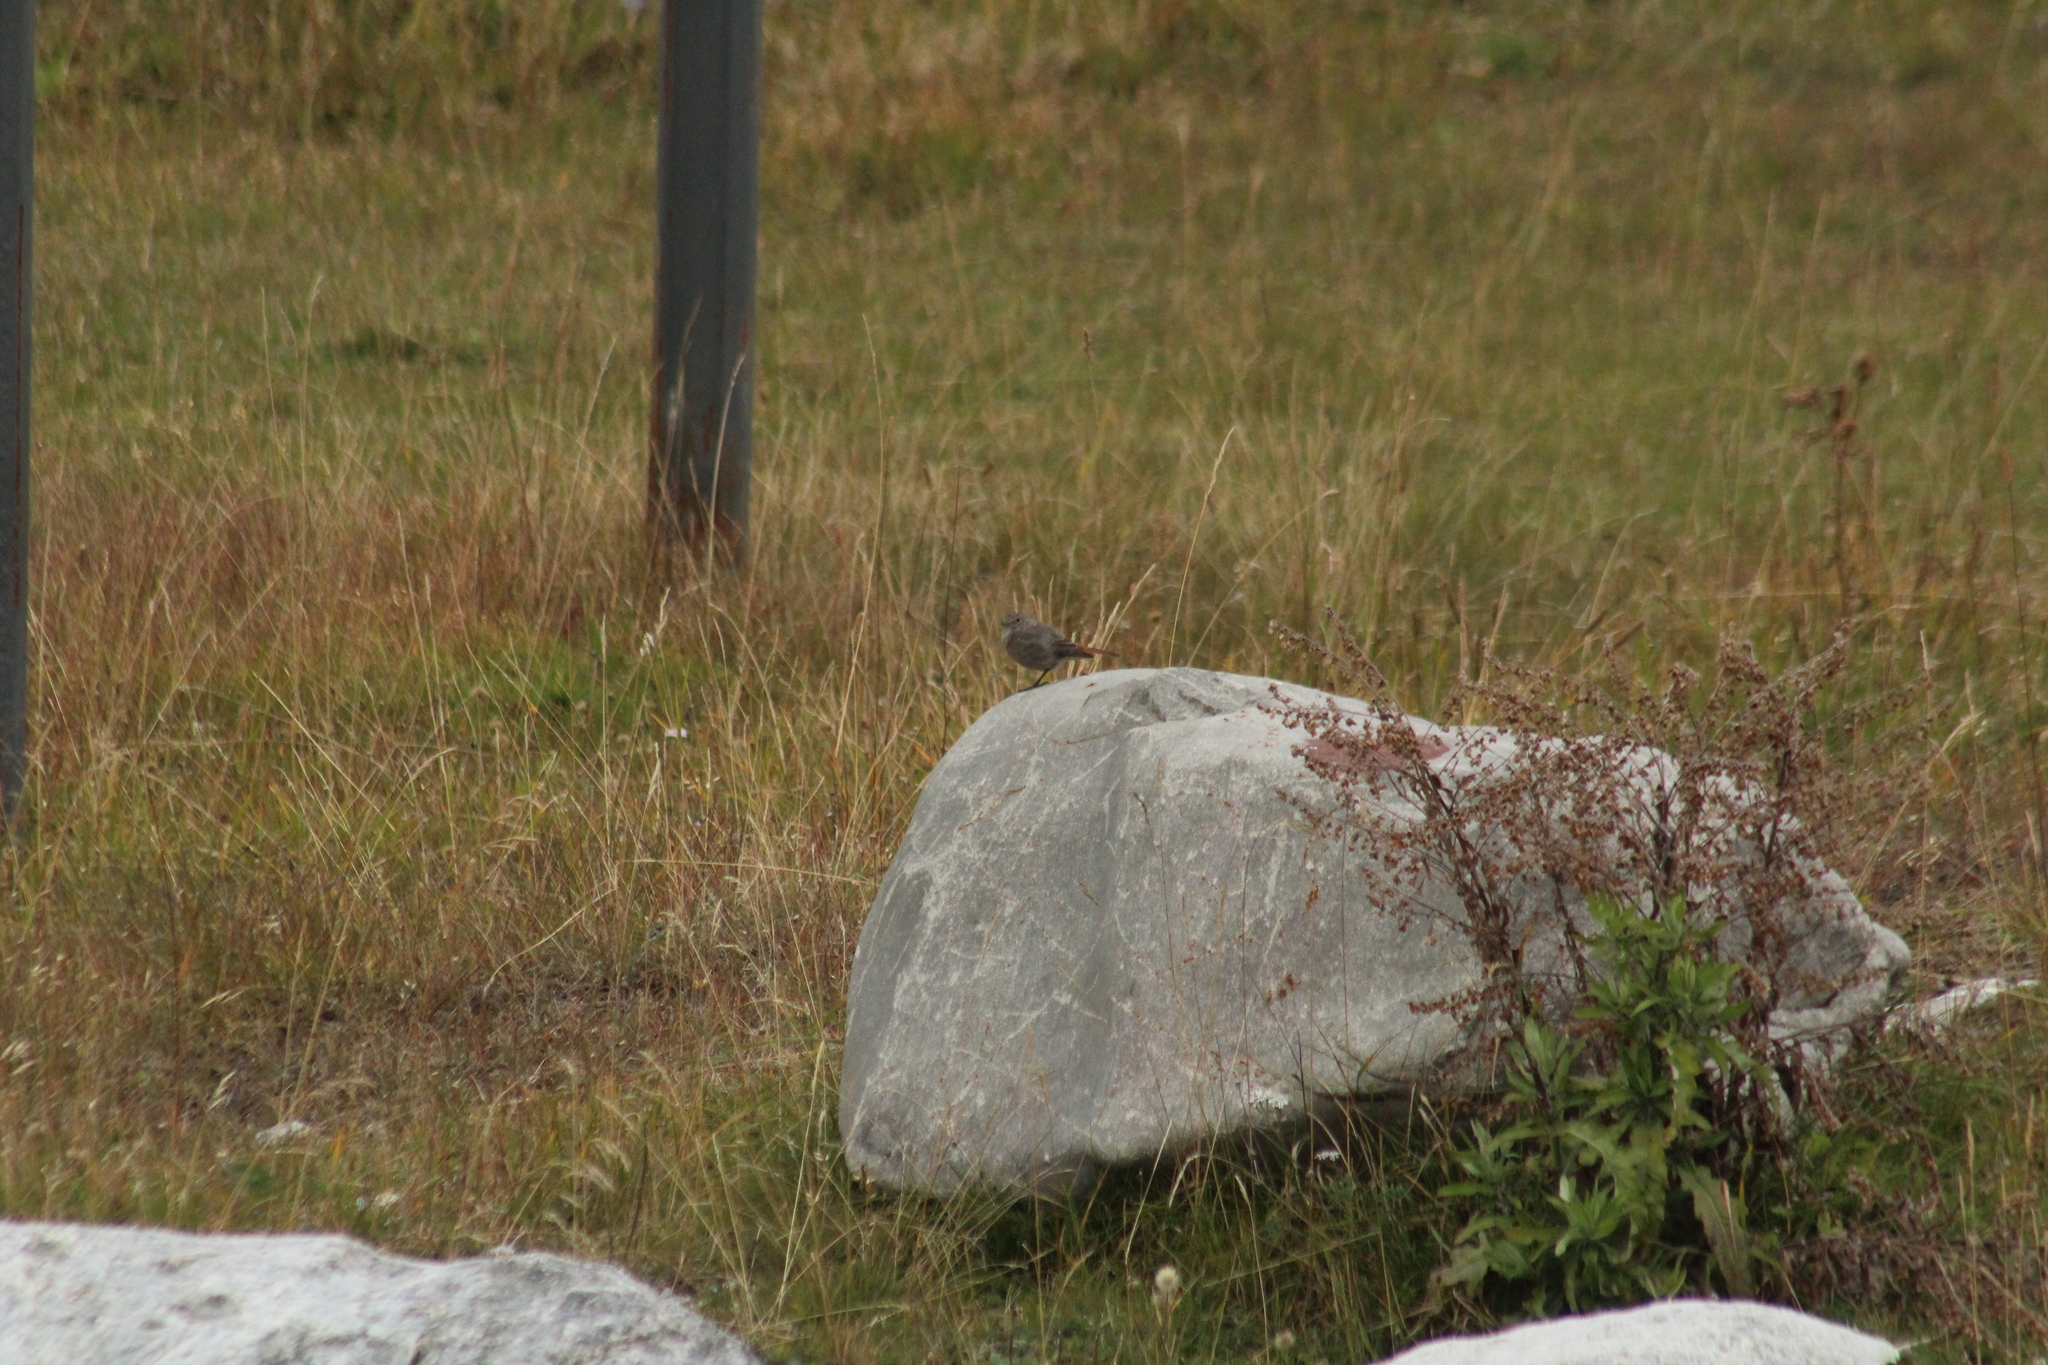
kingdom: Animalia
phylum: Chordata
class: Aves
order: Passeriformes
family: Muscicapidae
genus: Phoenicurus
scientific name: Phoenicurus ochruros
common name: Black redstart
